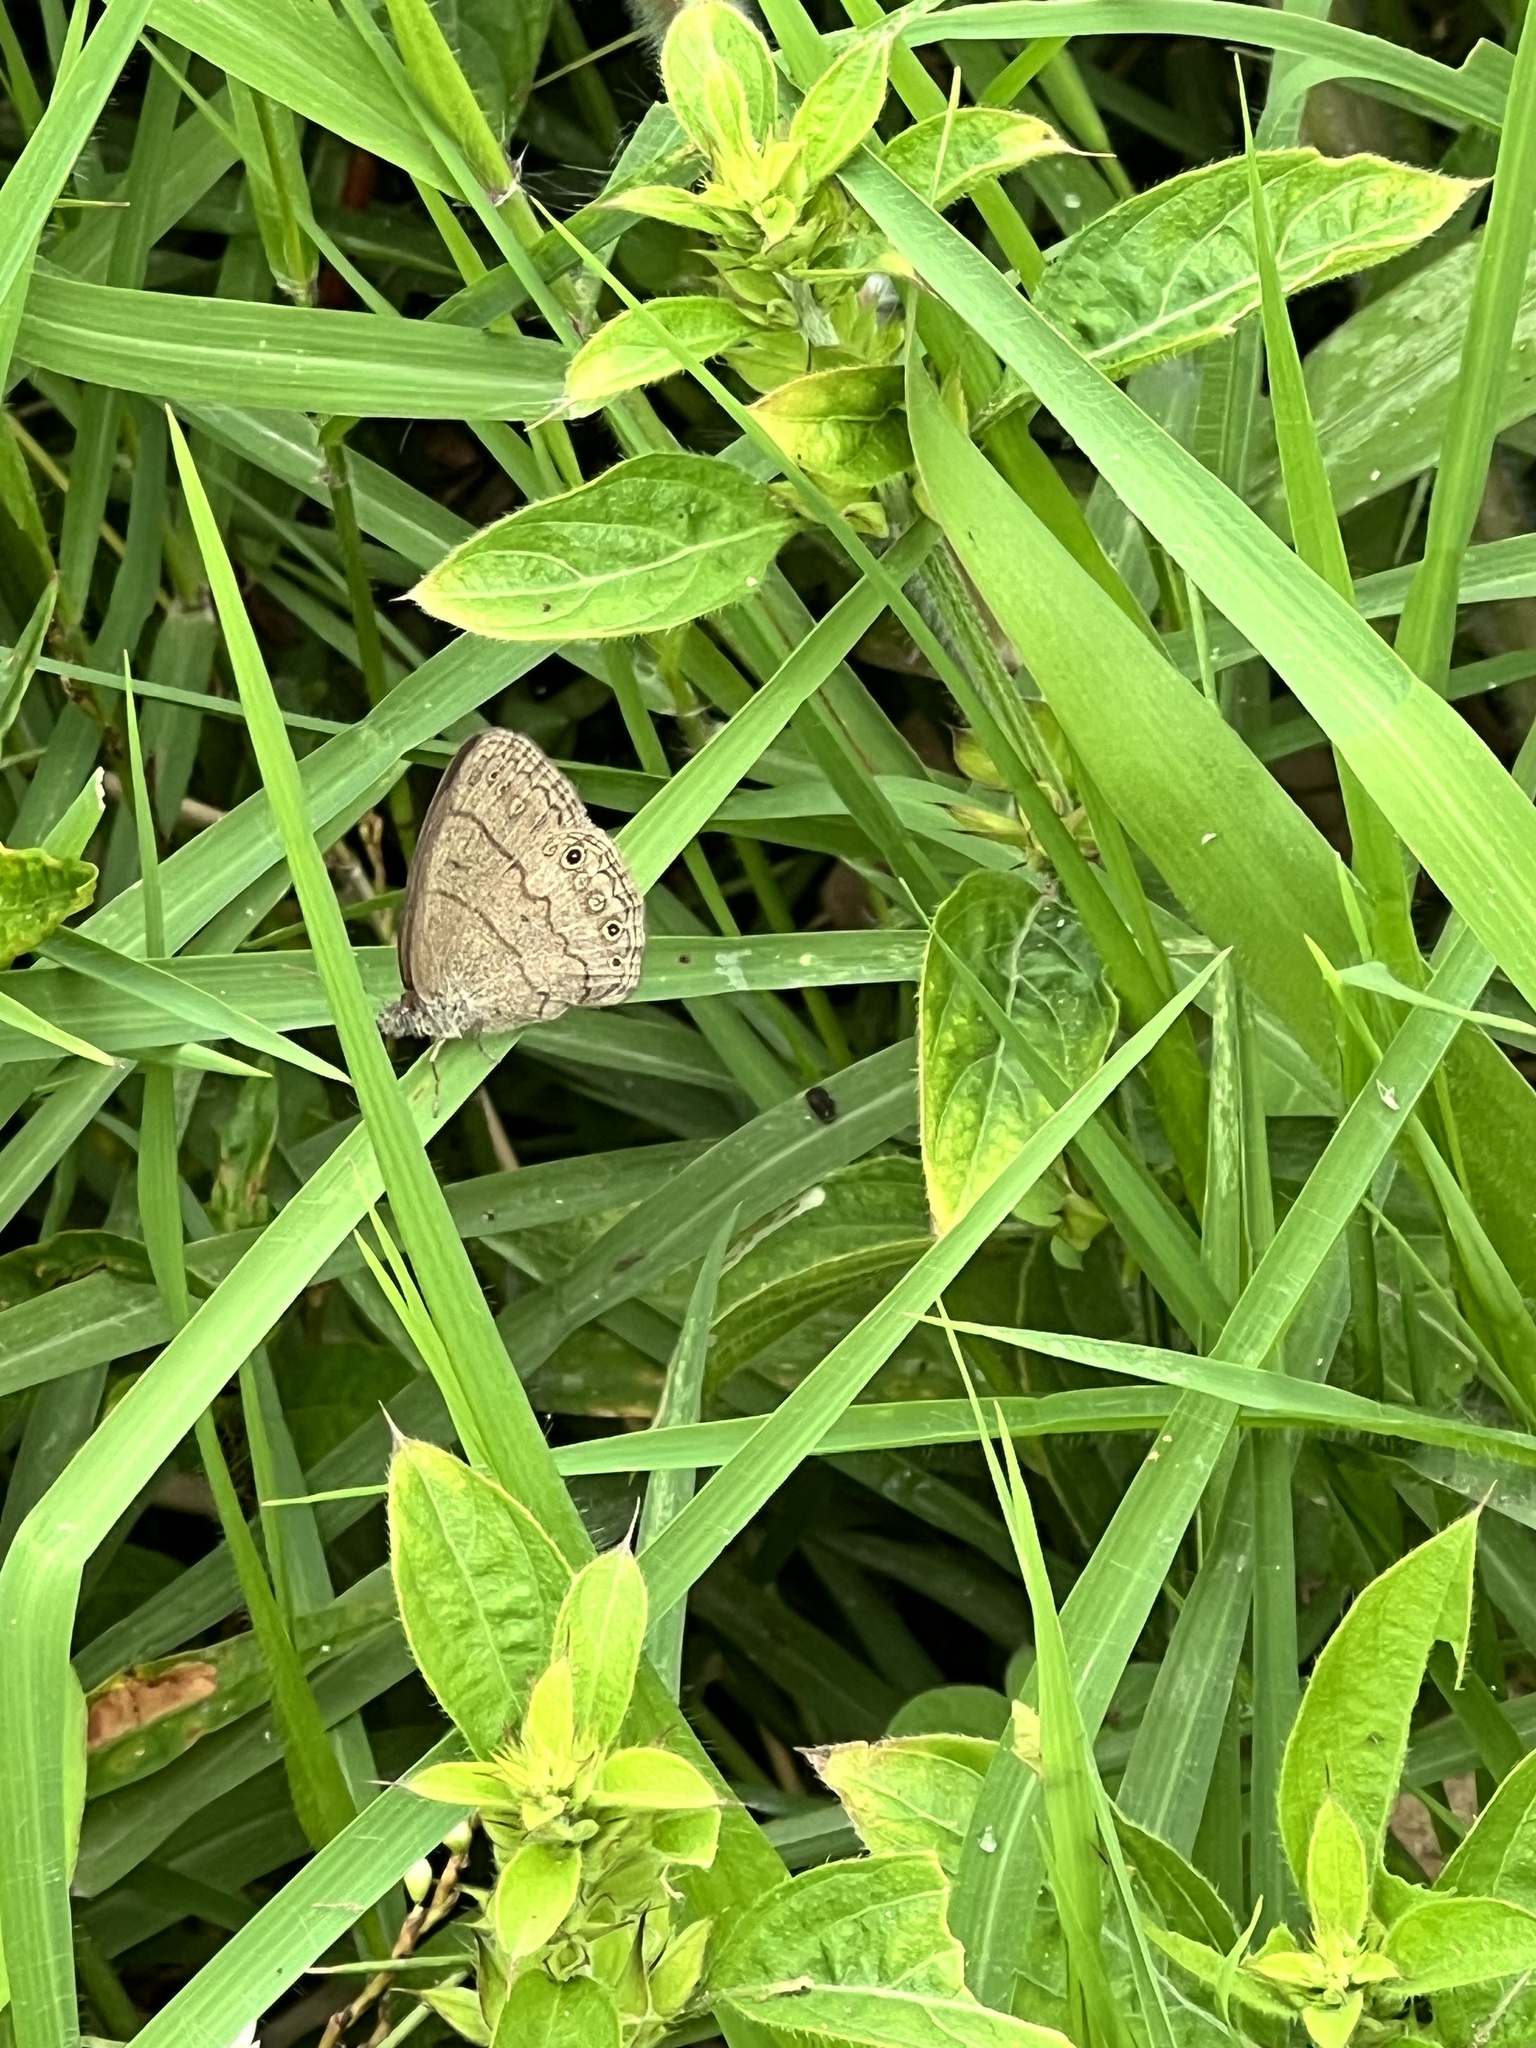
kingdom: Animalia
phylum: Arthropoda
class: Insecta
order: Lepidoptera
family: Nymphalidae
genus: Hermeuptychia
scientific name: Hermeuptychia hermes
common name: Hermes satyr
